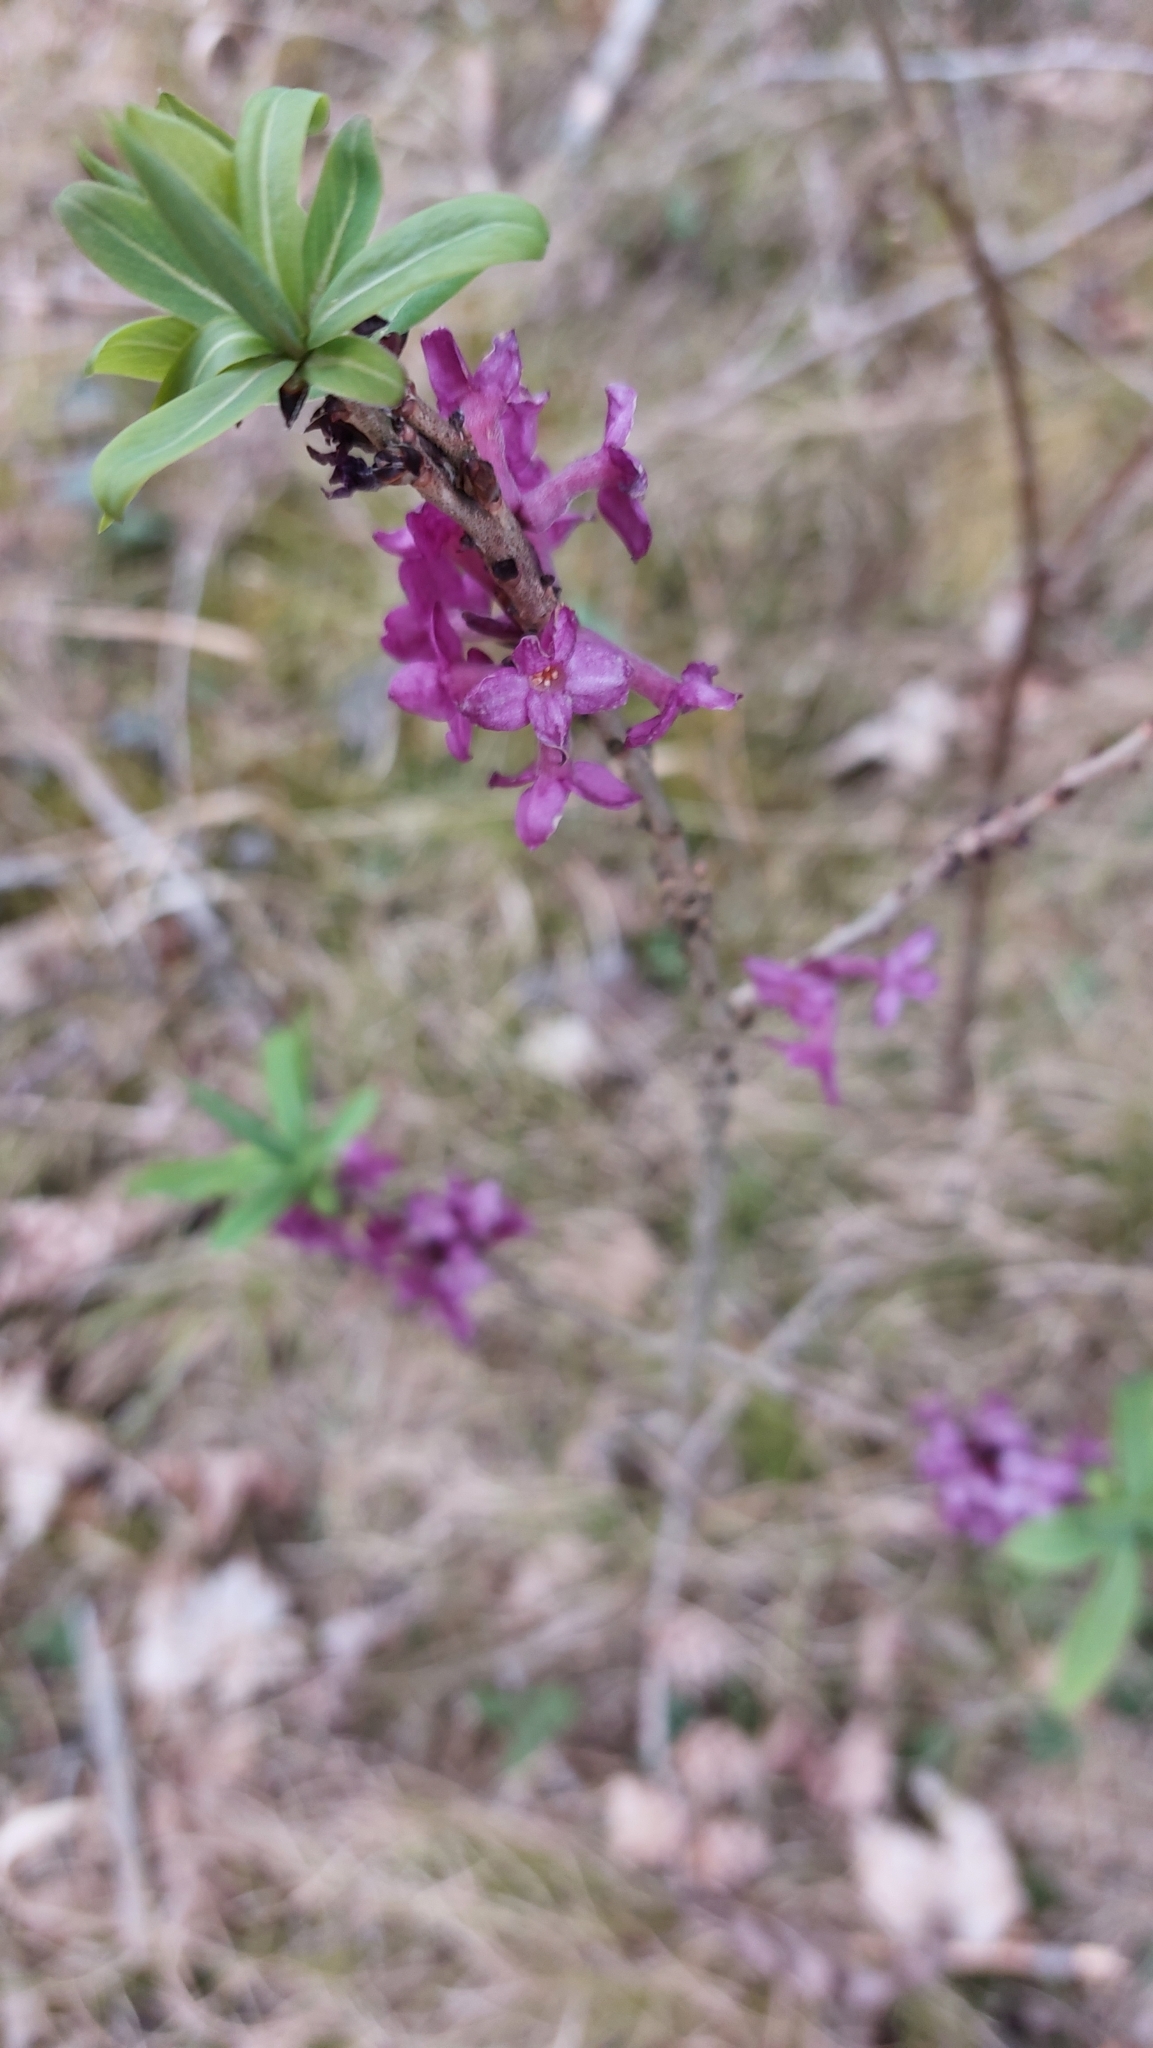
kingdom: Plantae
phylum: Tracheophyta
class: Magnoliopsida
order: Malvales
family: Thymelaeaceae
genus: Daphne
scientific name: Daphne mezereum
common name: Mezereon
